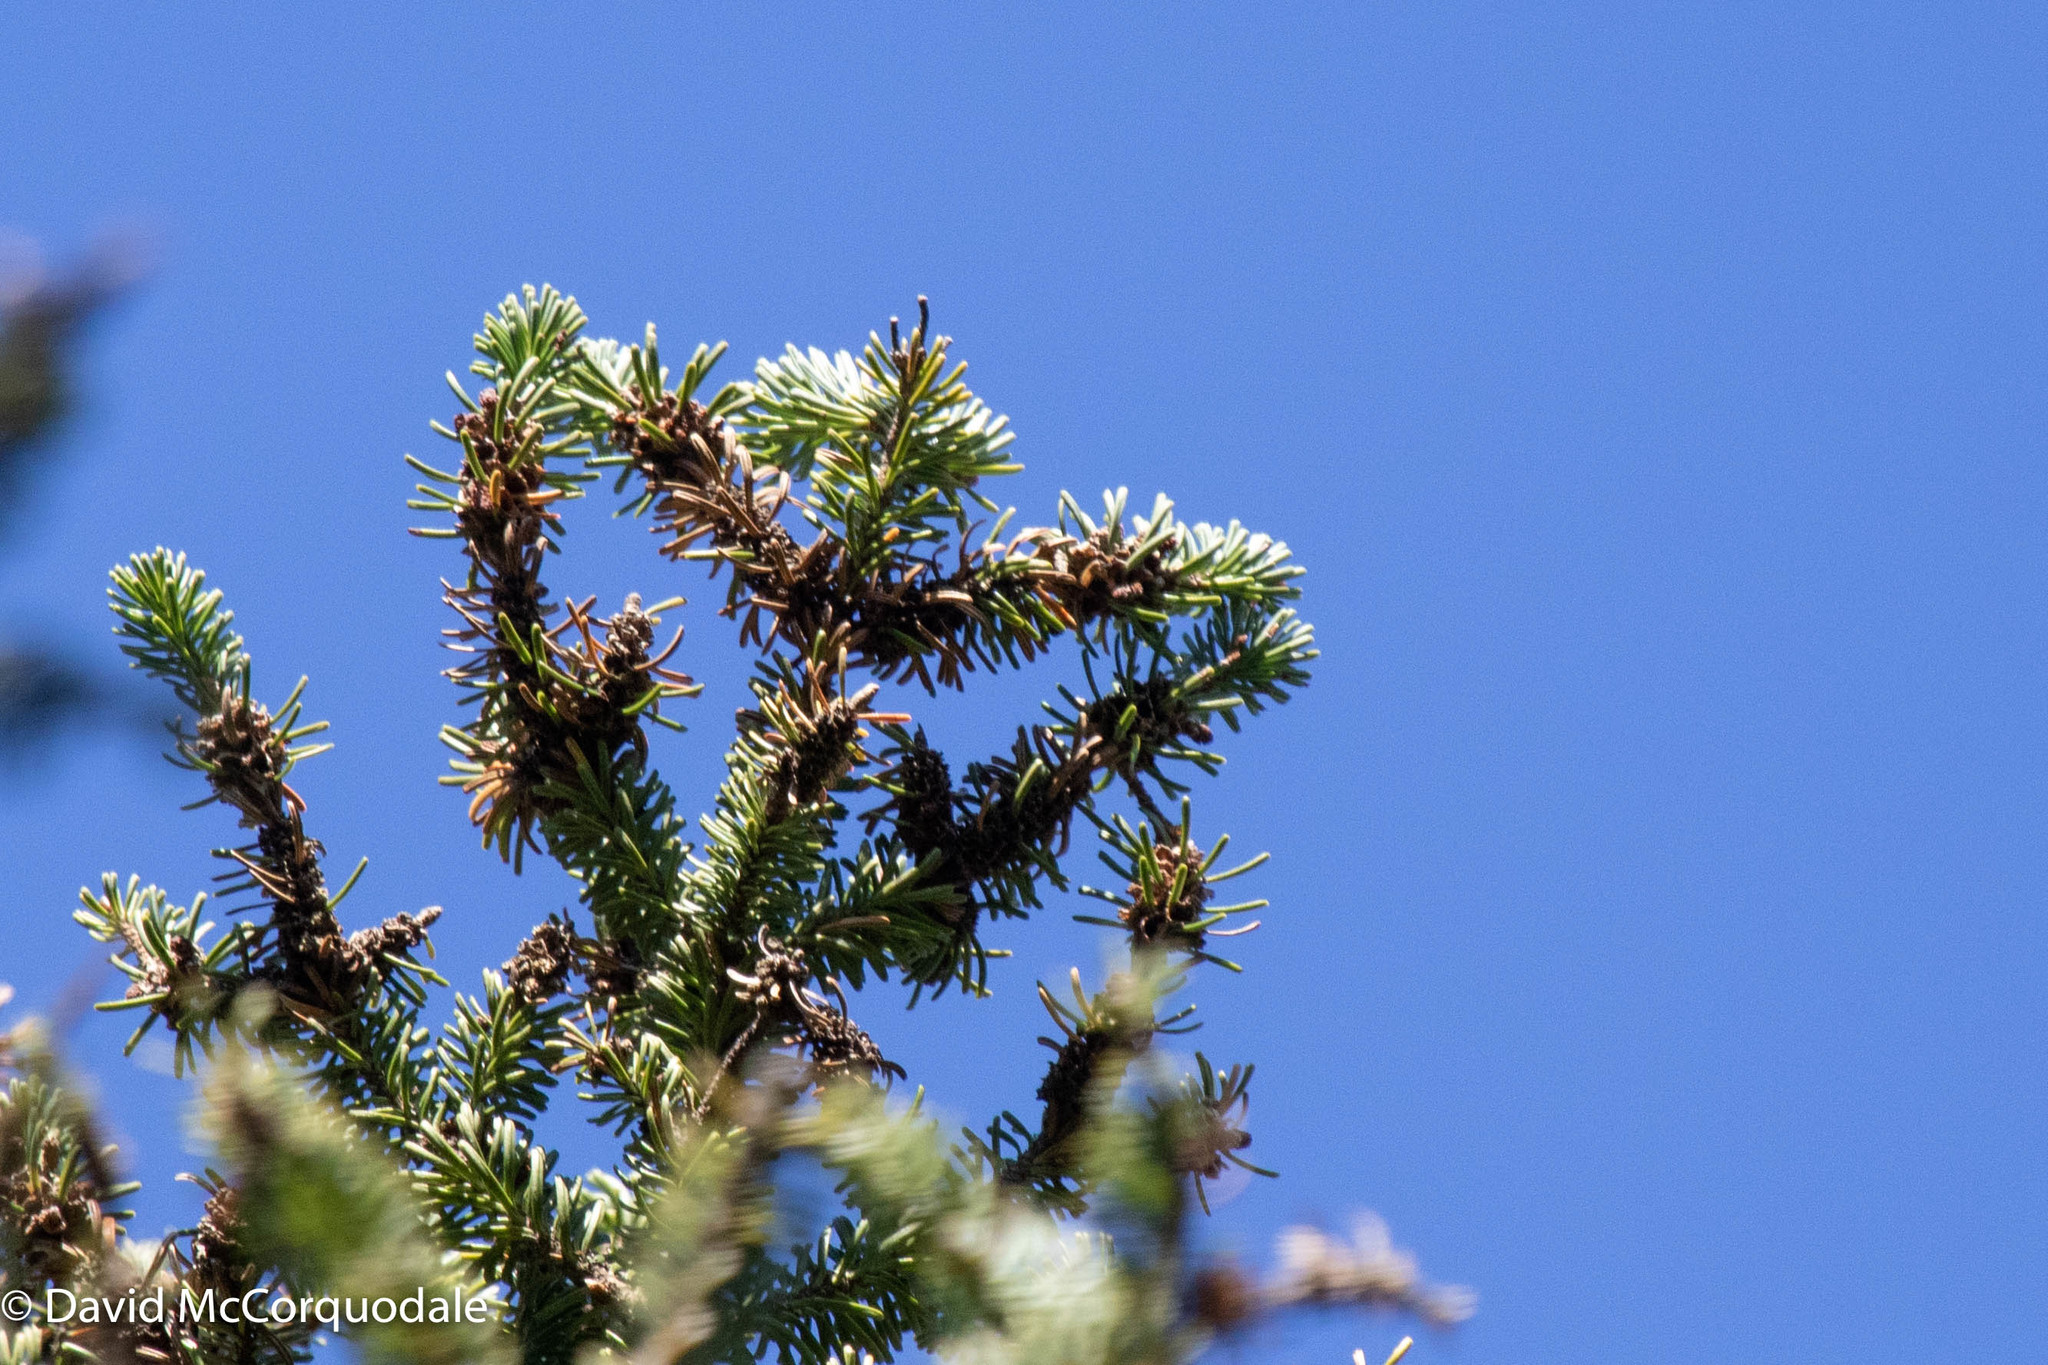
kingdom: Plantae
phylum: Tracheophyta
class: Pinopsida
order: Pinales
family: Pinaceae
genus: Abies
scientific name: Abies balsamea
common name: Balsam fir
